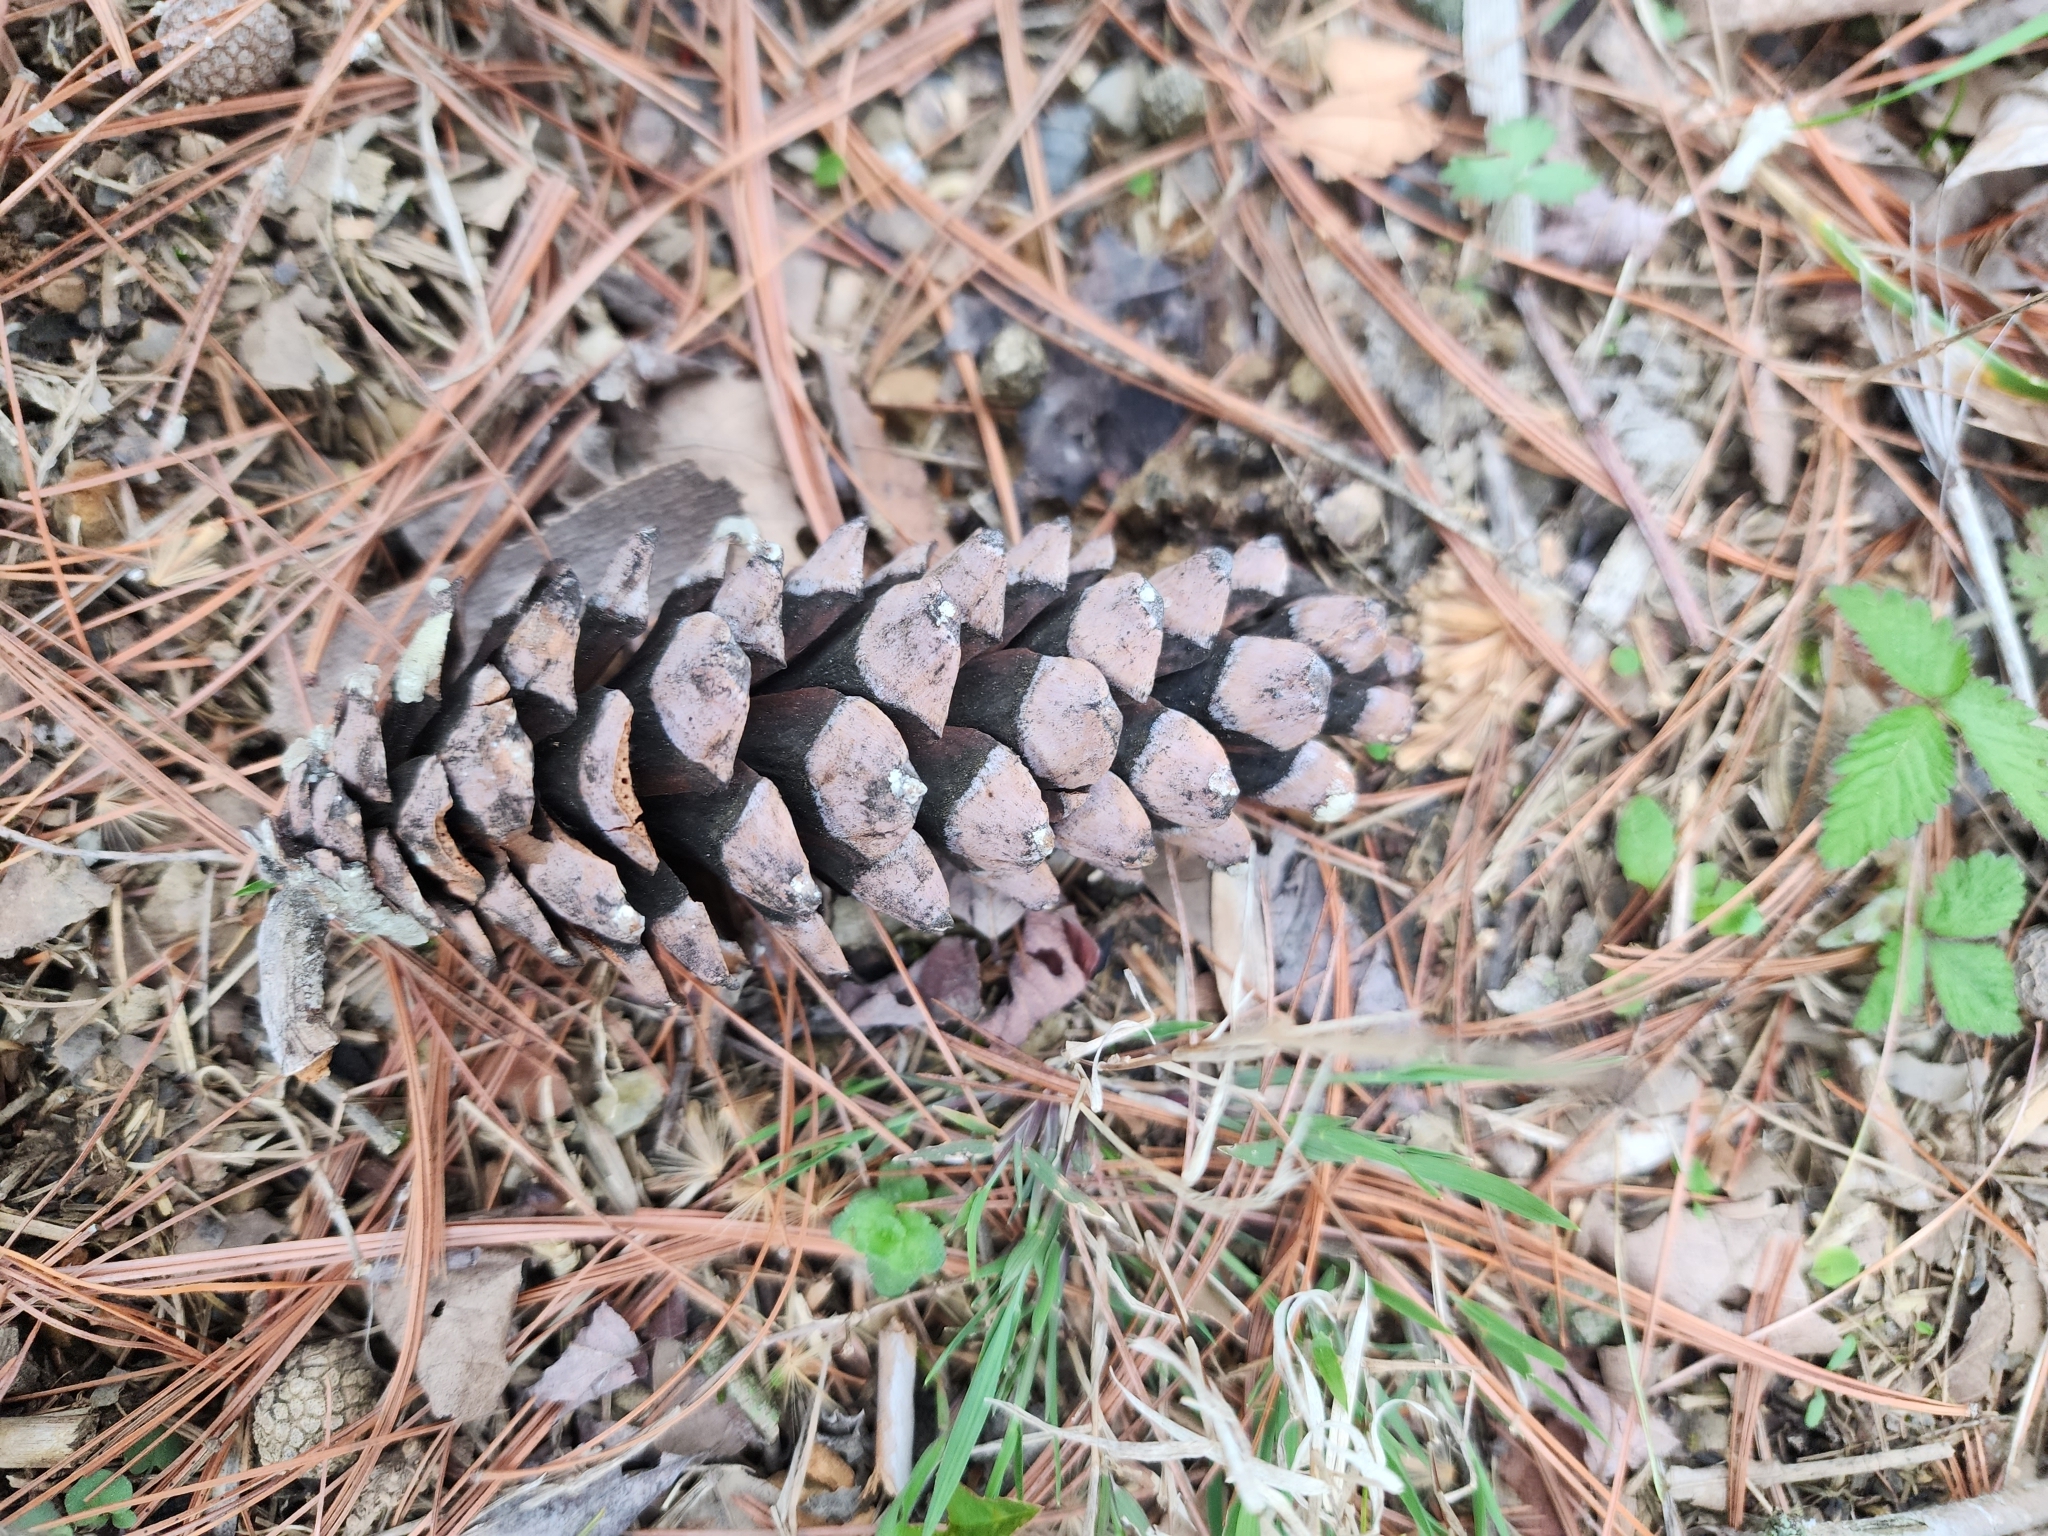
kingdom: Plantae
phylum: Tracheophyta
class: Pinopsida
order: Pinales
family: Pinaceae
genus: Pinus
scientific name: Pinus strobus
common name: Weymouth pine
